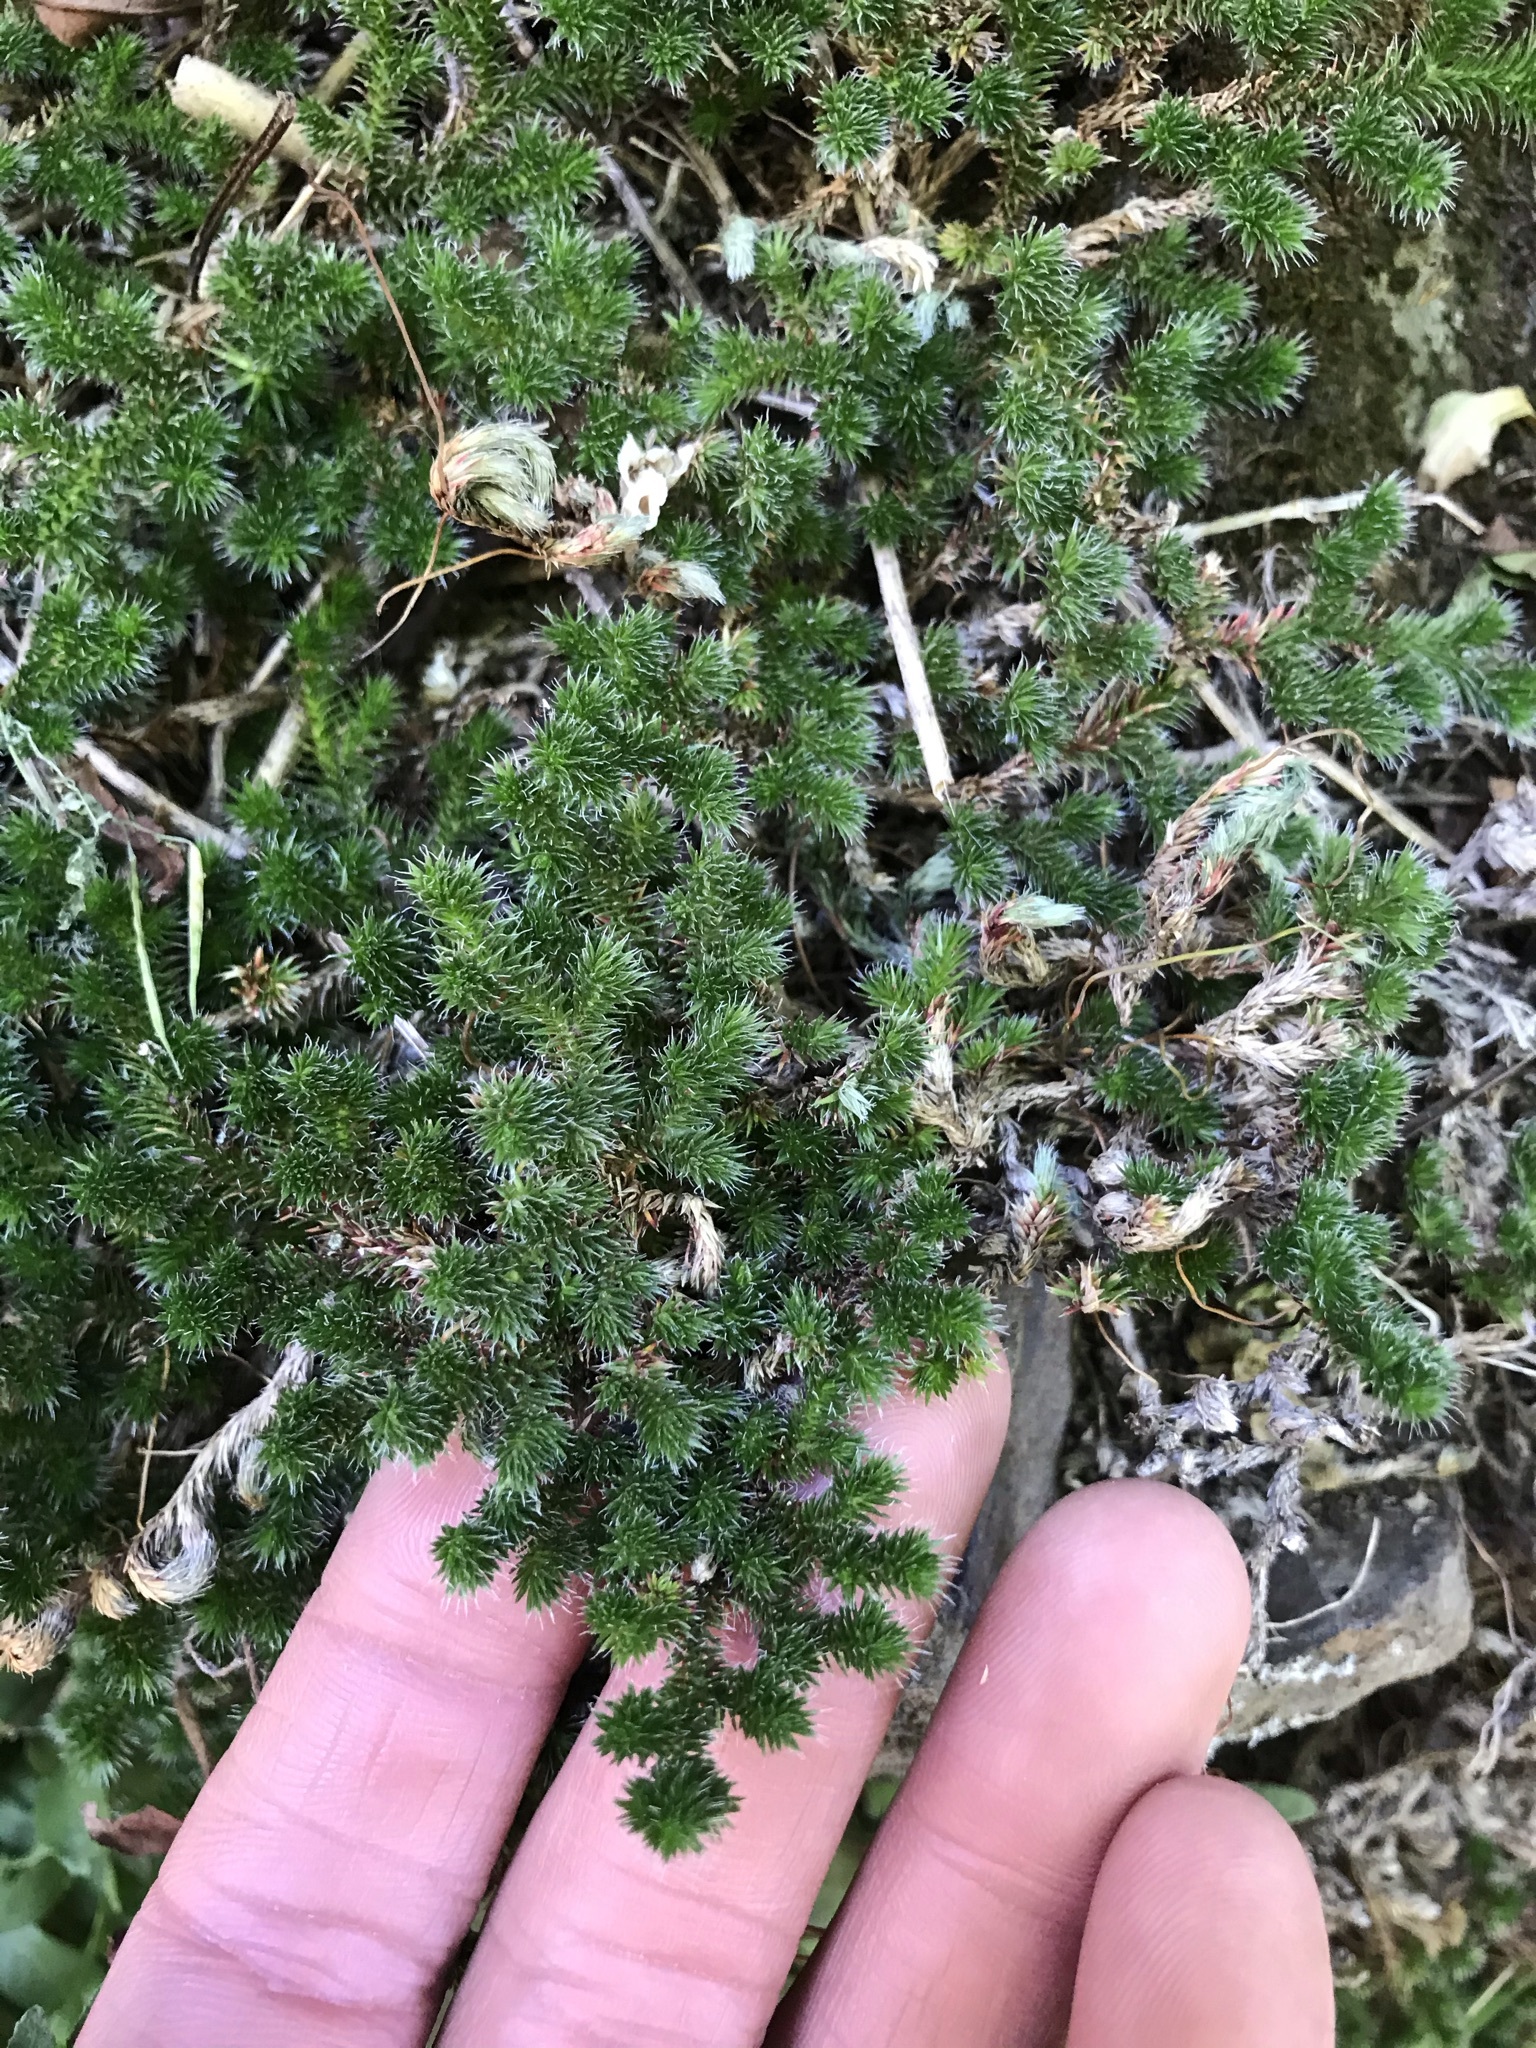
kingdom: Plantae
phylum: Tracheophyta
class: Lycopodiopsida
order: Selaginellales
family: Selaginellaceae
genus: Selaginella
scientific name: Selaginella hansenii
